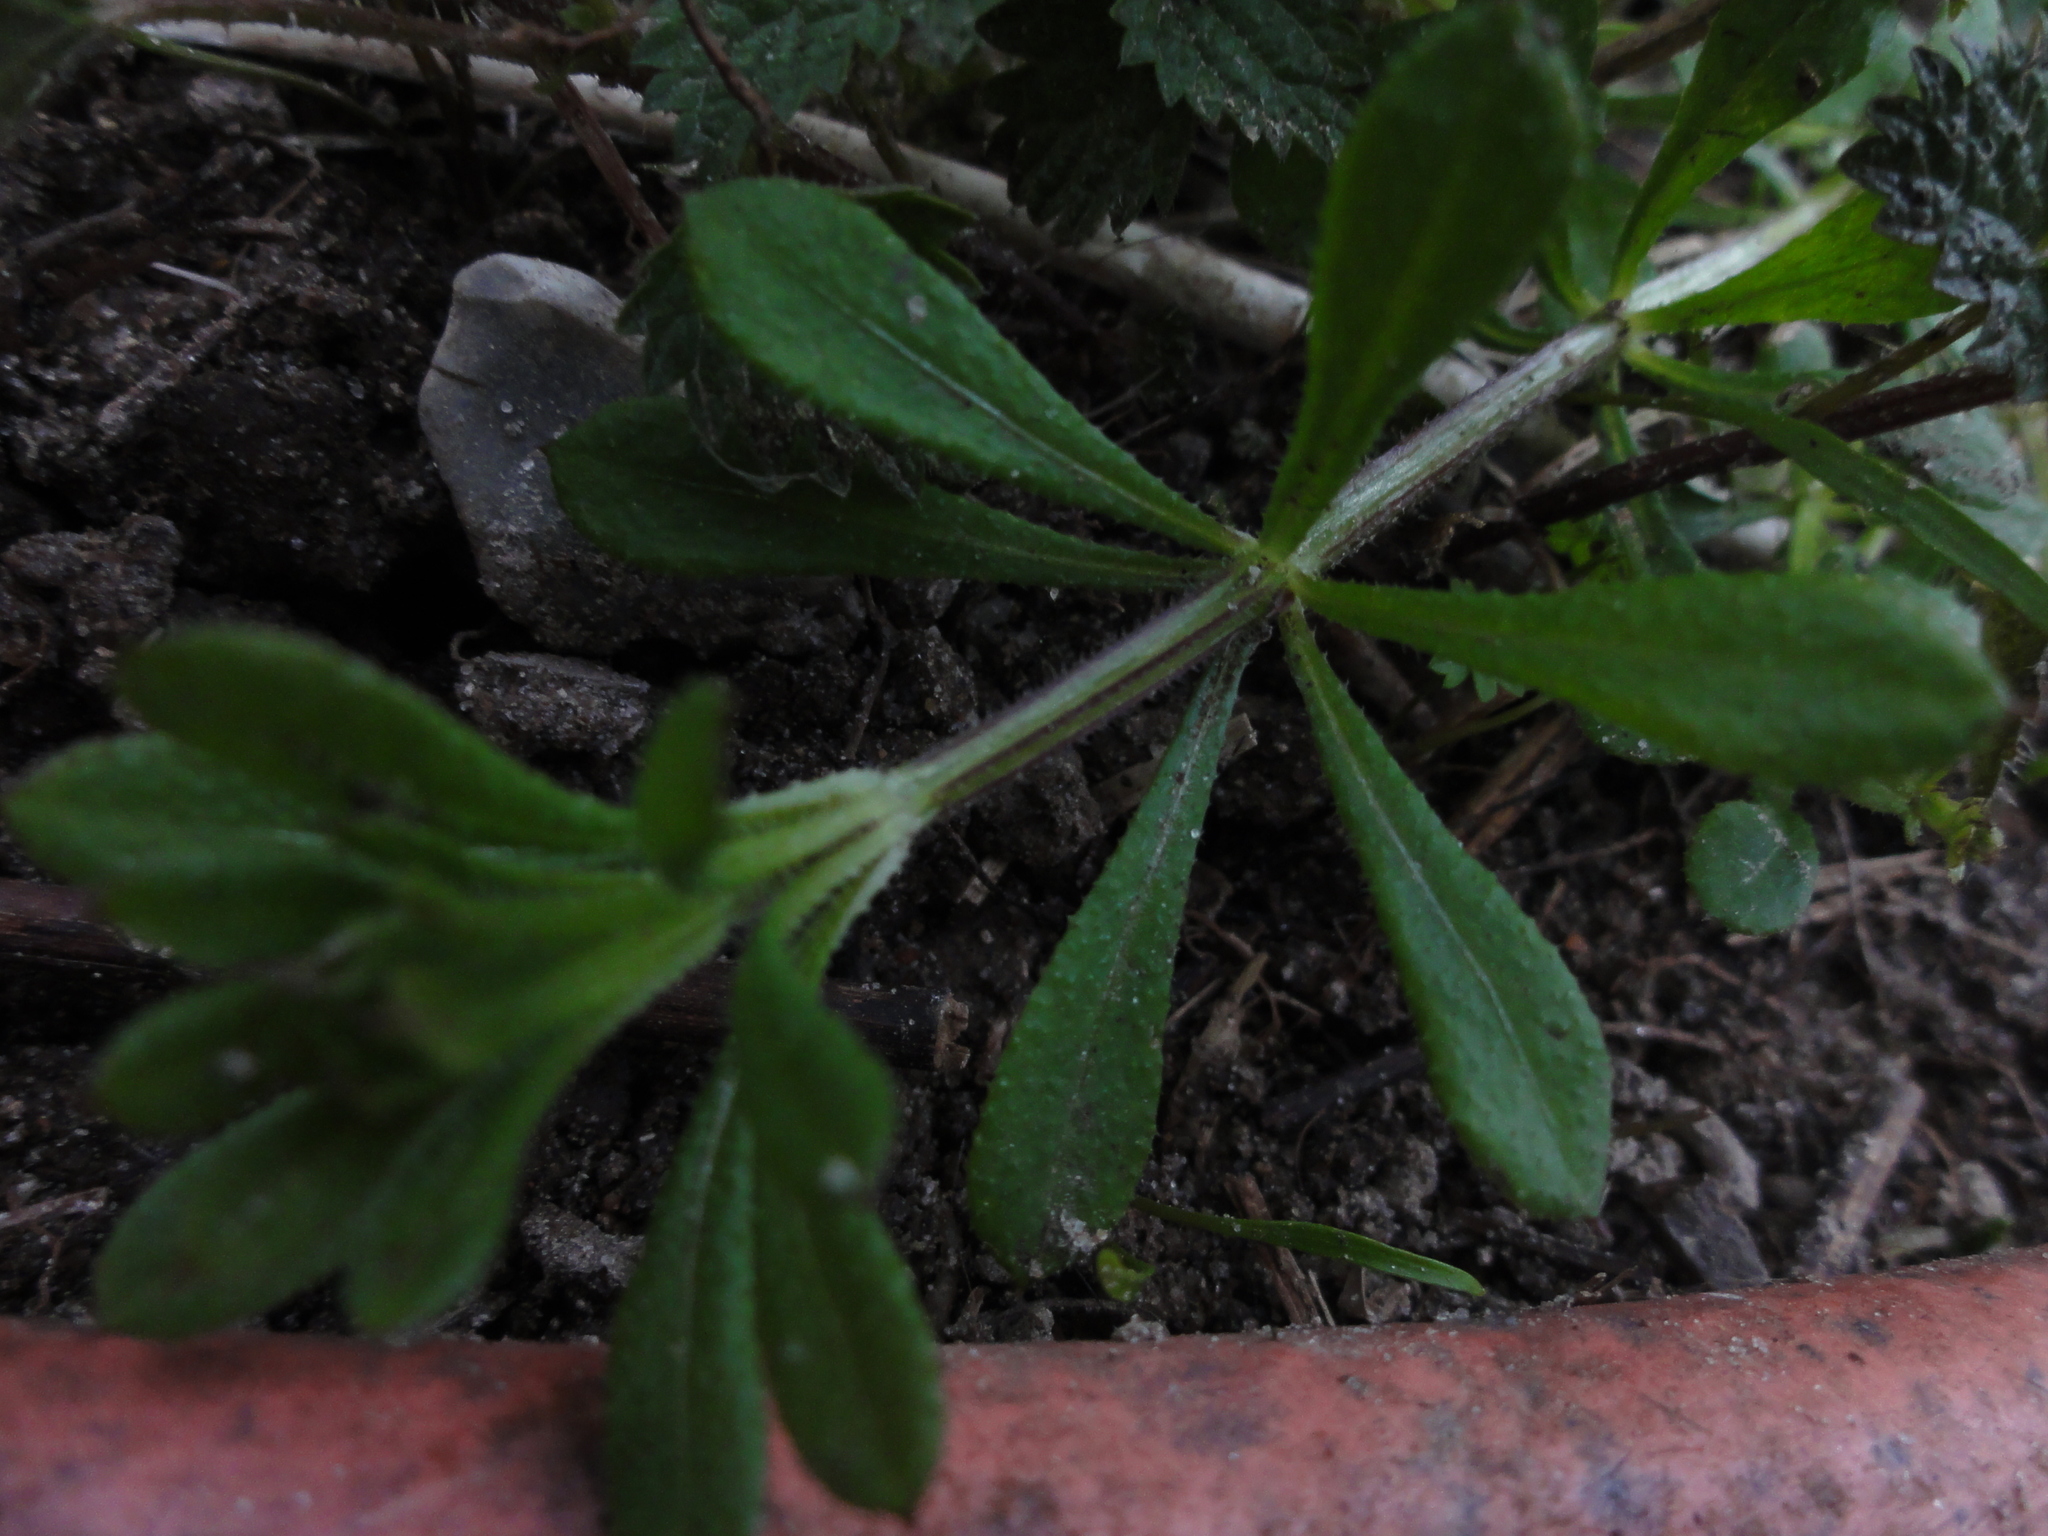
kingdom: Plantae
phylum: Tracheophyta
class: Magnoliopsida
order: Gentianales
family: Rubiaceae
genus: Galium
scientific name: Galium aparine
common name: Cleavers
